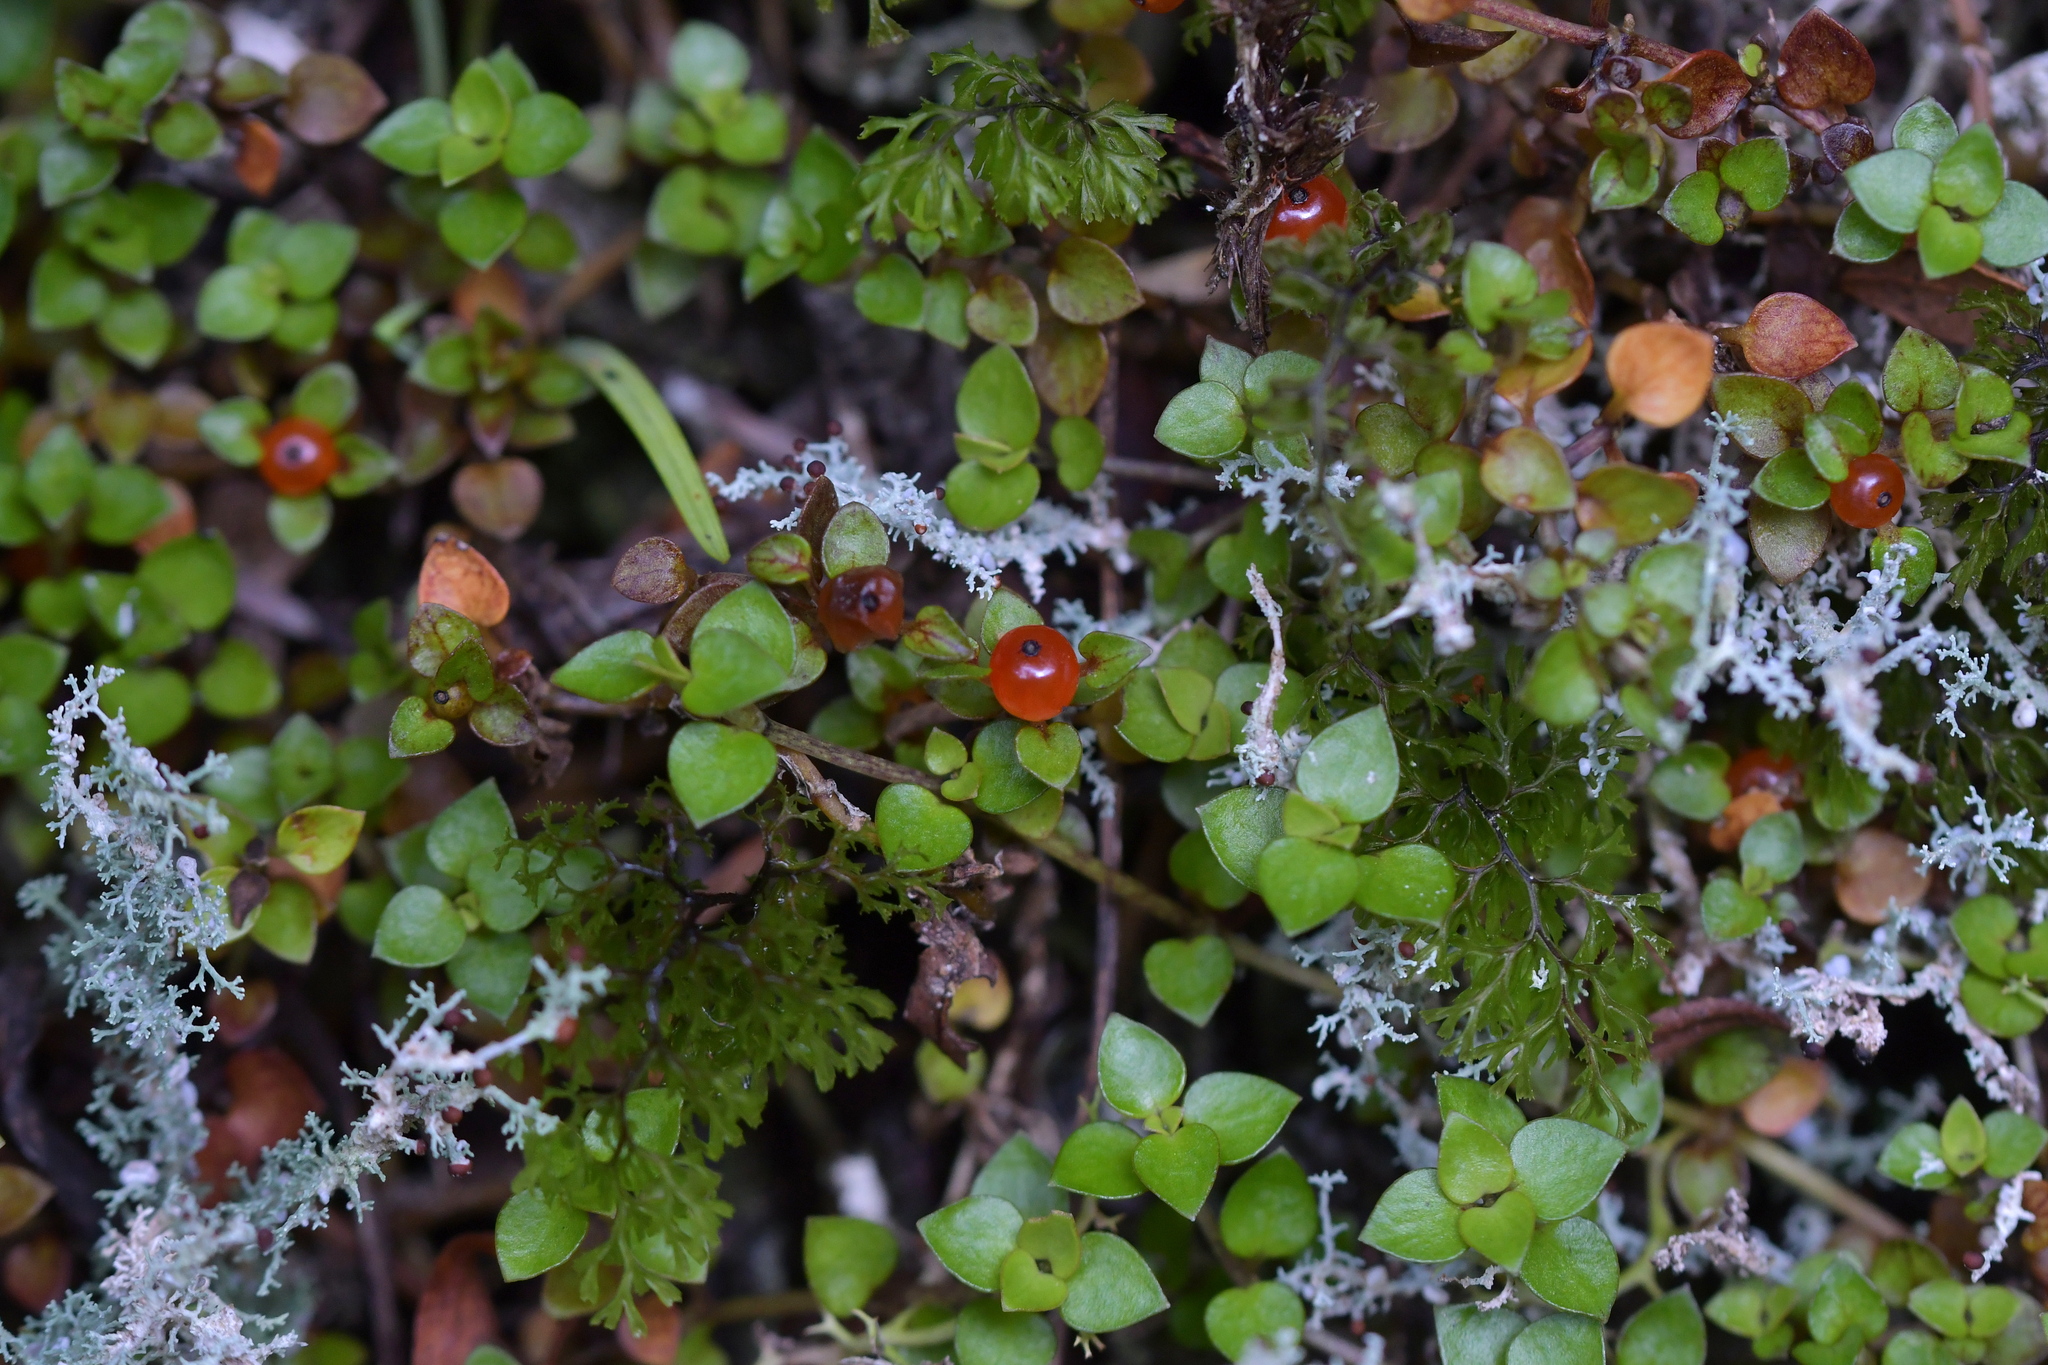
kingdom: Plantae
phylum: Tracheophyta
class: Magnoliopsida
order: Gentianales
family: Rubiaceae
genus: Nertera
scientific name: Nertera granadensis
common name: Beadplant
